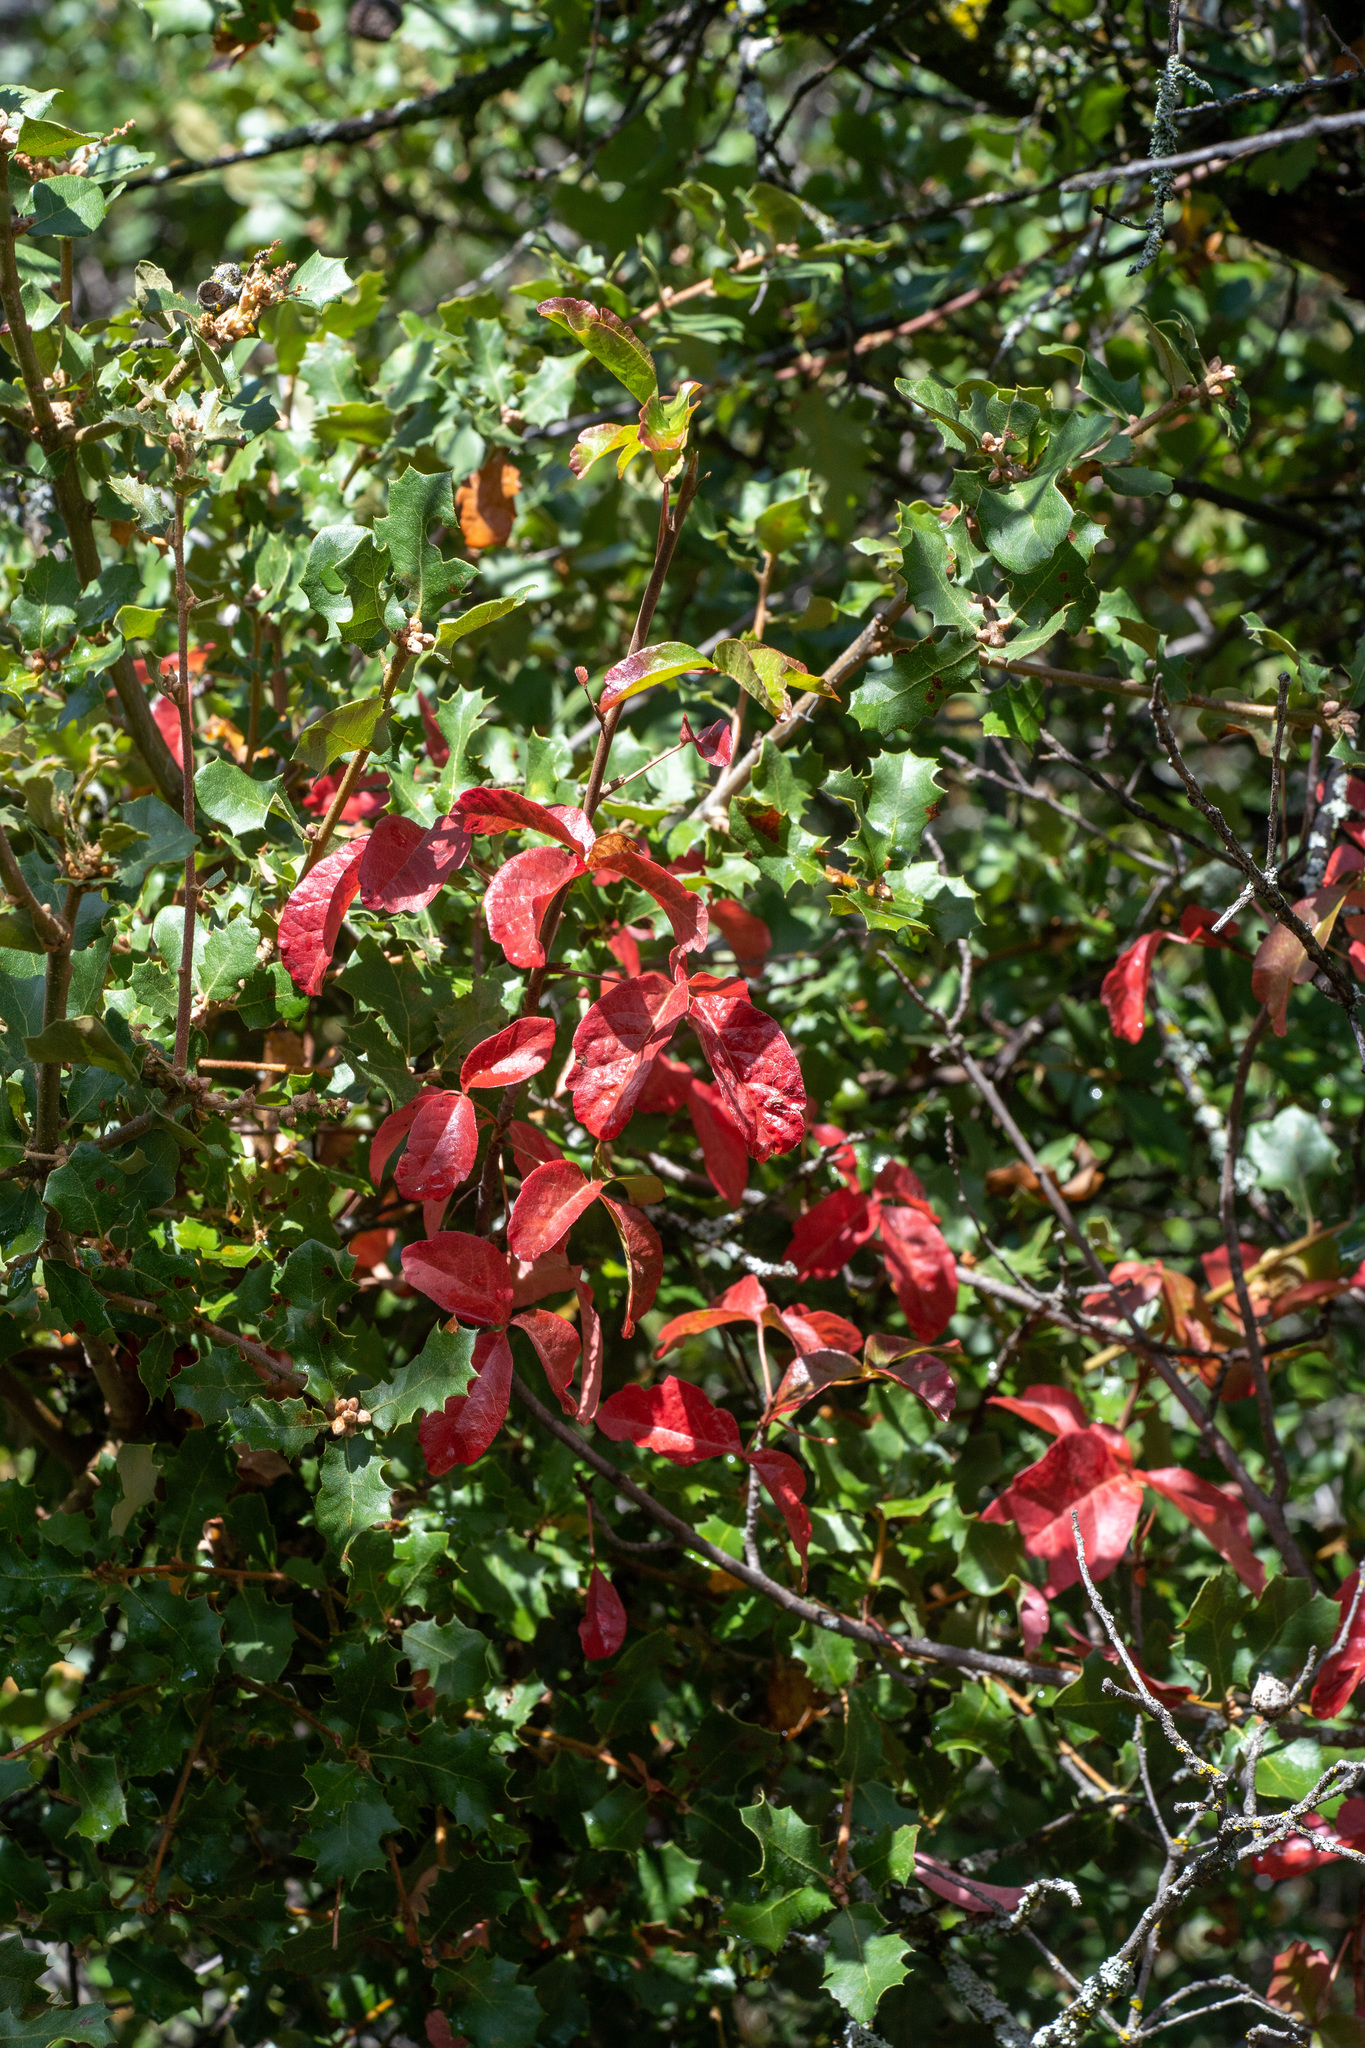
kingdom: Plantae
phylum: Tracheophyta
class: Magnoliopsida
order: Sapindales
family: Anacardiaceae
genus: Toxicodendron
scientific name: Toxicodendron diversilobum
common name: Pacific poison-oak
